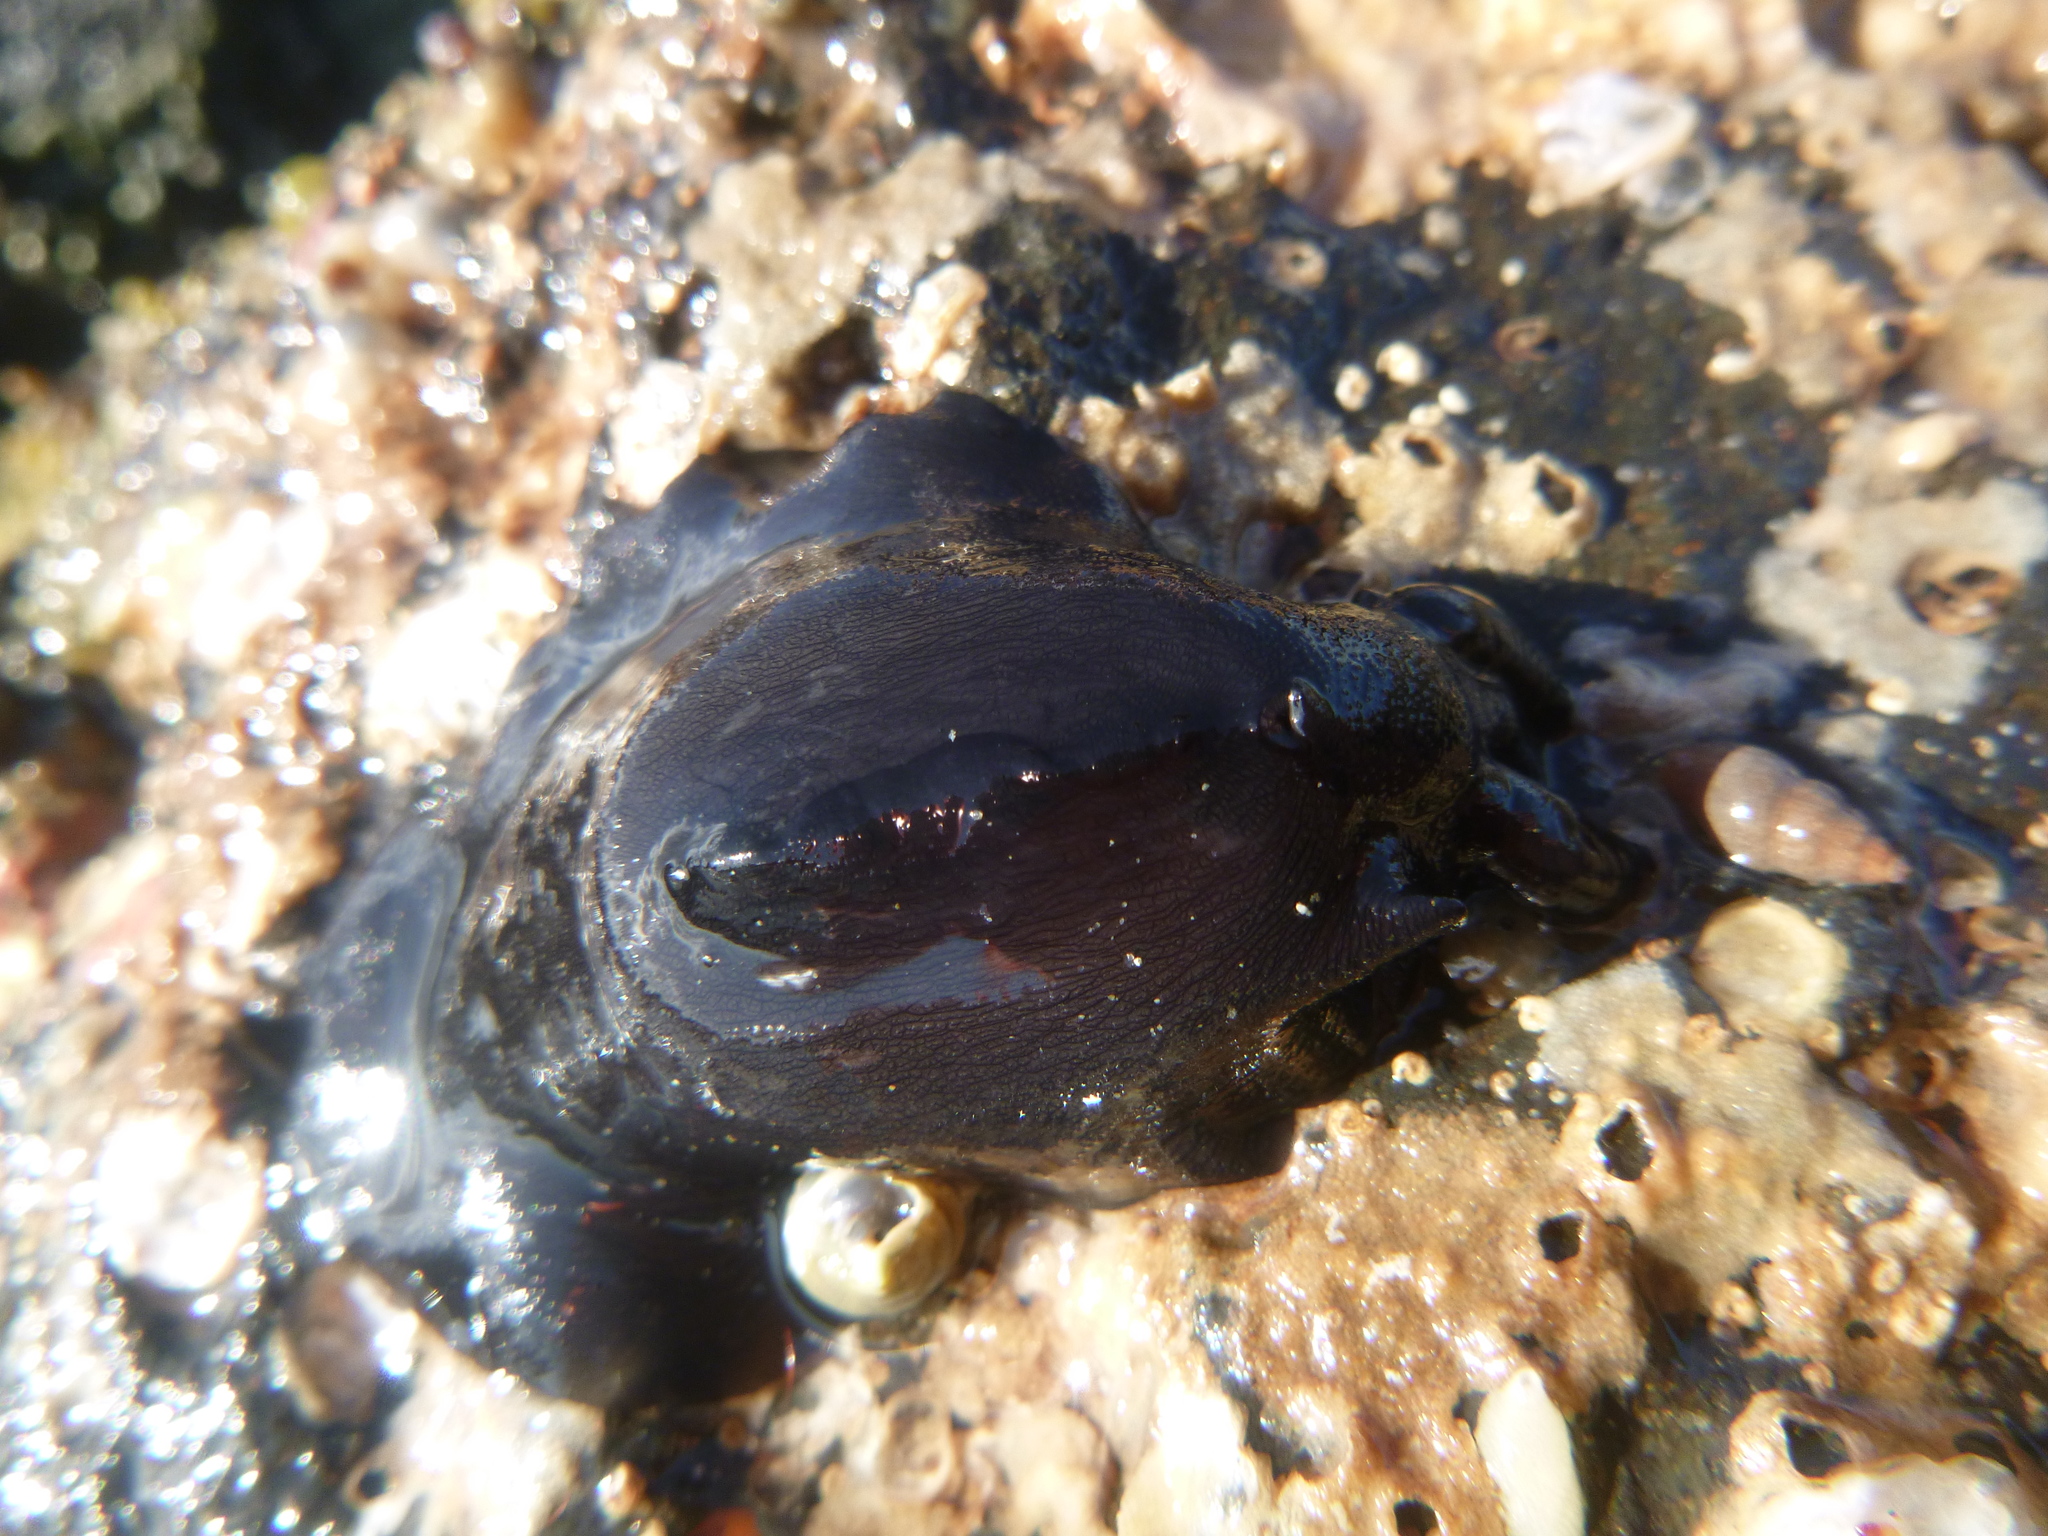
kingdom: Animalia
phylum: Mollusca
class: Gastropoda
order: Lepetellida
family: Fissurellidae
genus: Scutus
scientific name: Scutus breviculus
